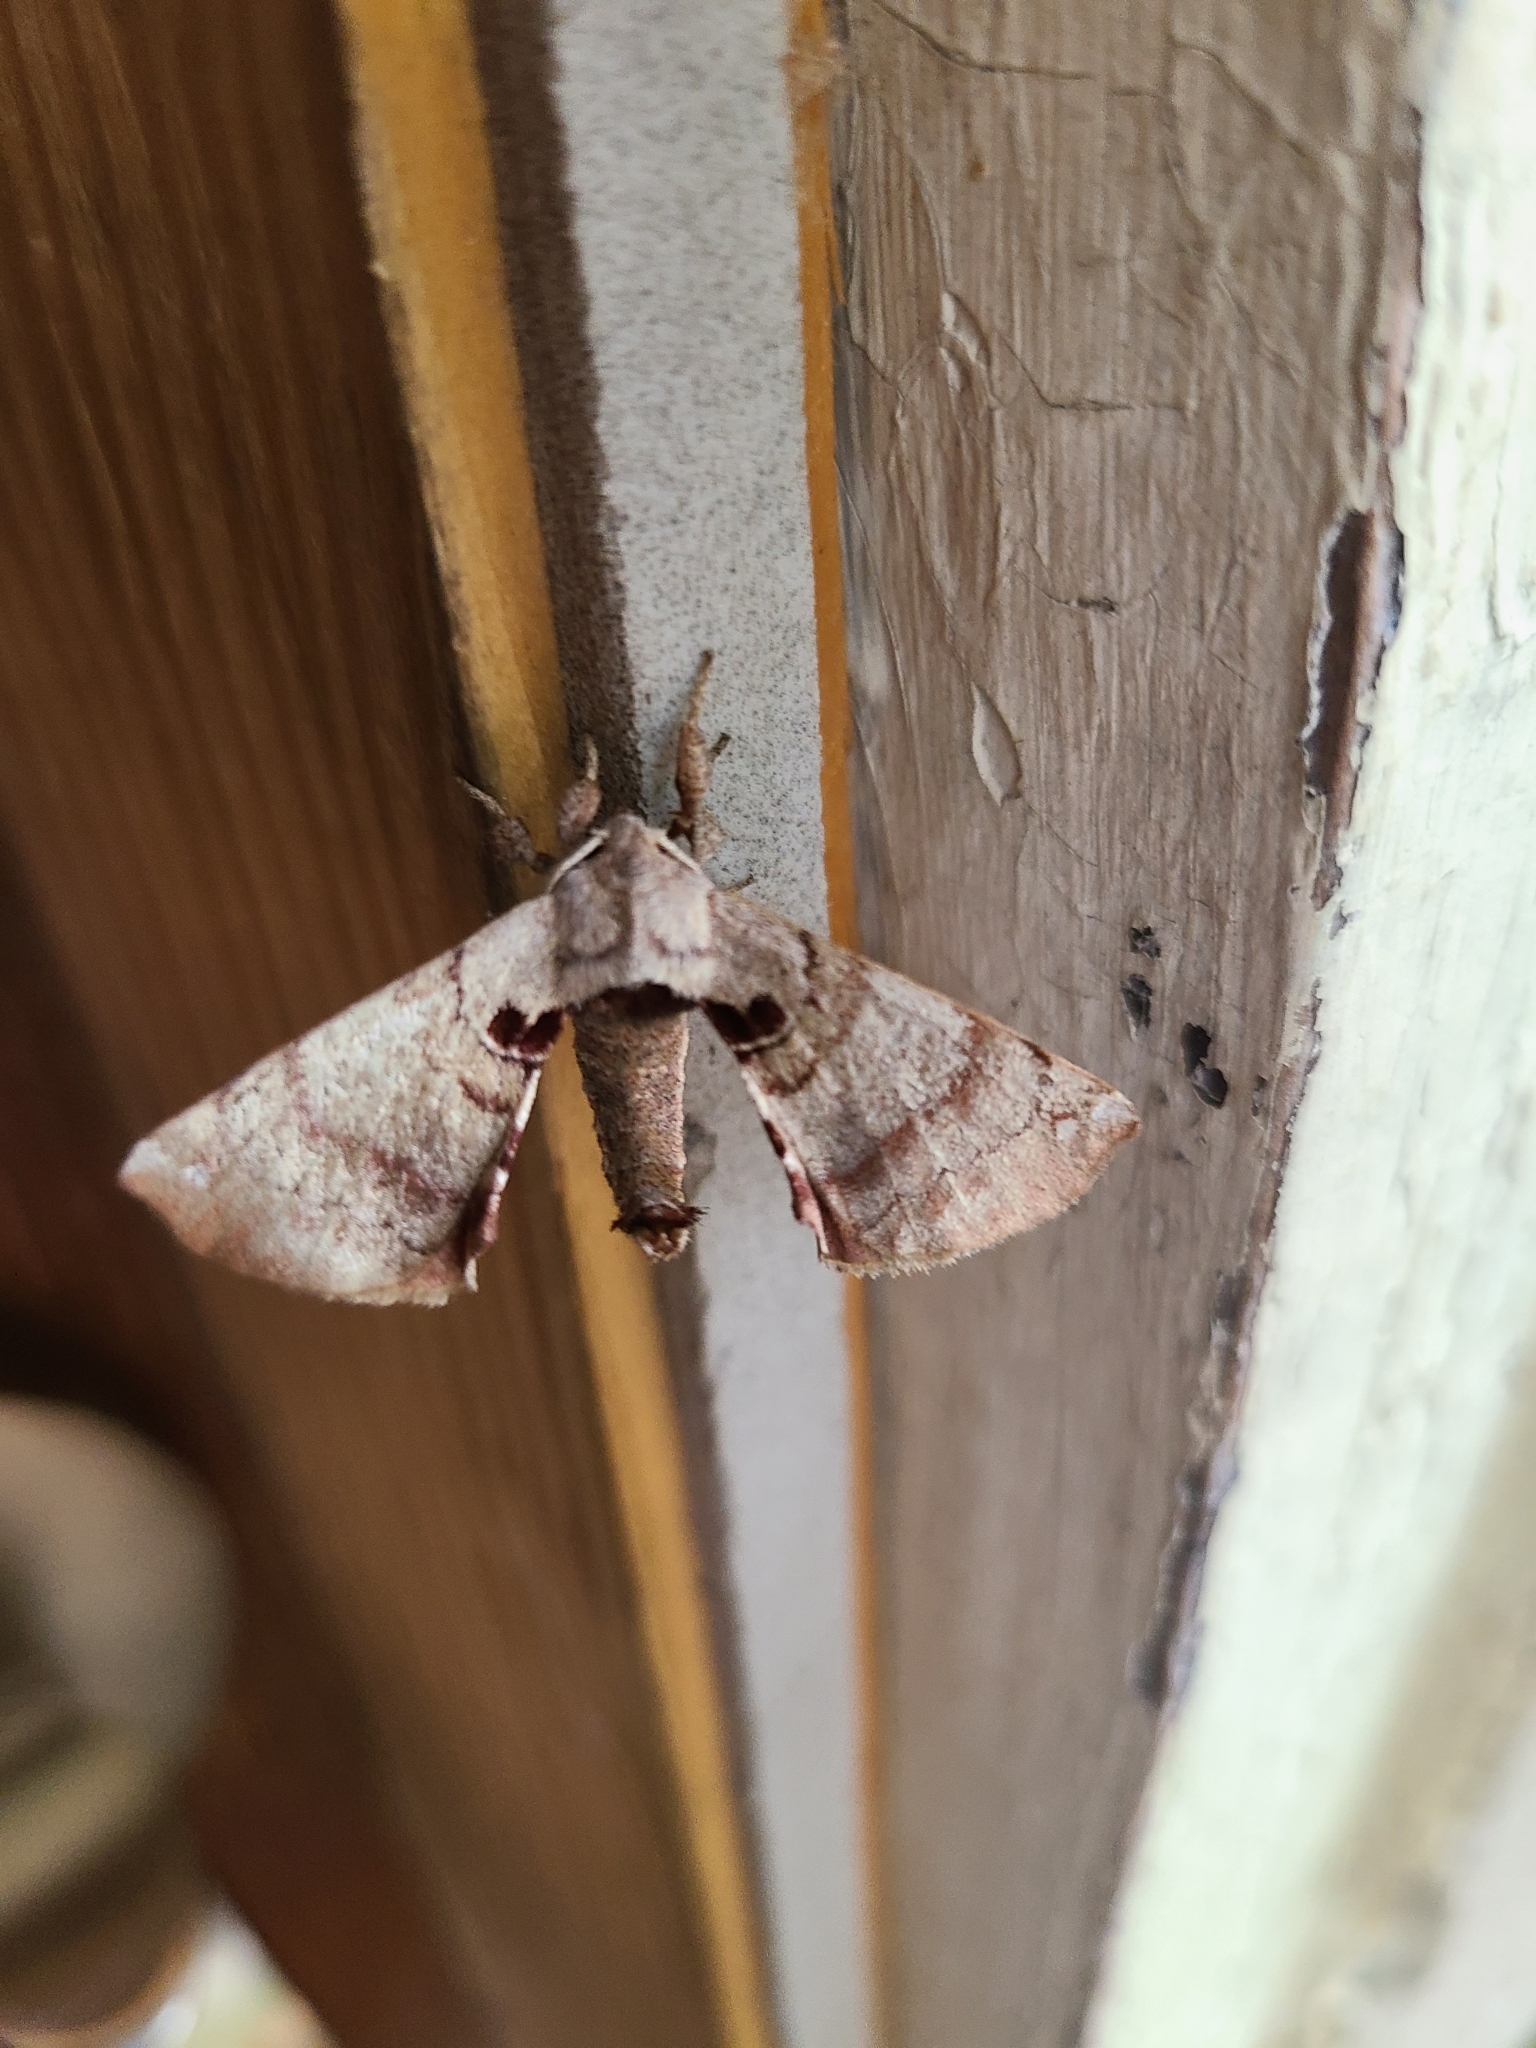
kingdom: Animalia
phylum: Arthropoda
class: Insecta
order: Lepidoptera
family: Apatelodidae
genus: Hygrochroa
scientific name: Hygrochroa Apatelodes torrefacta
